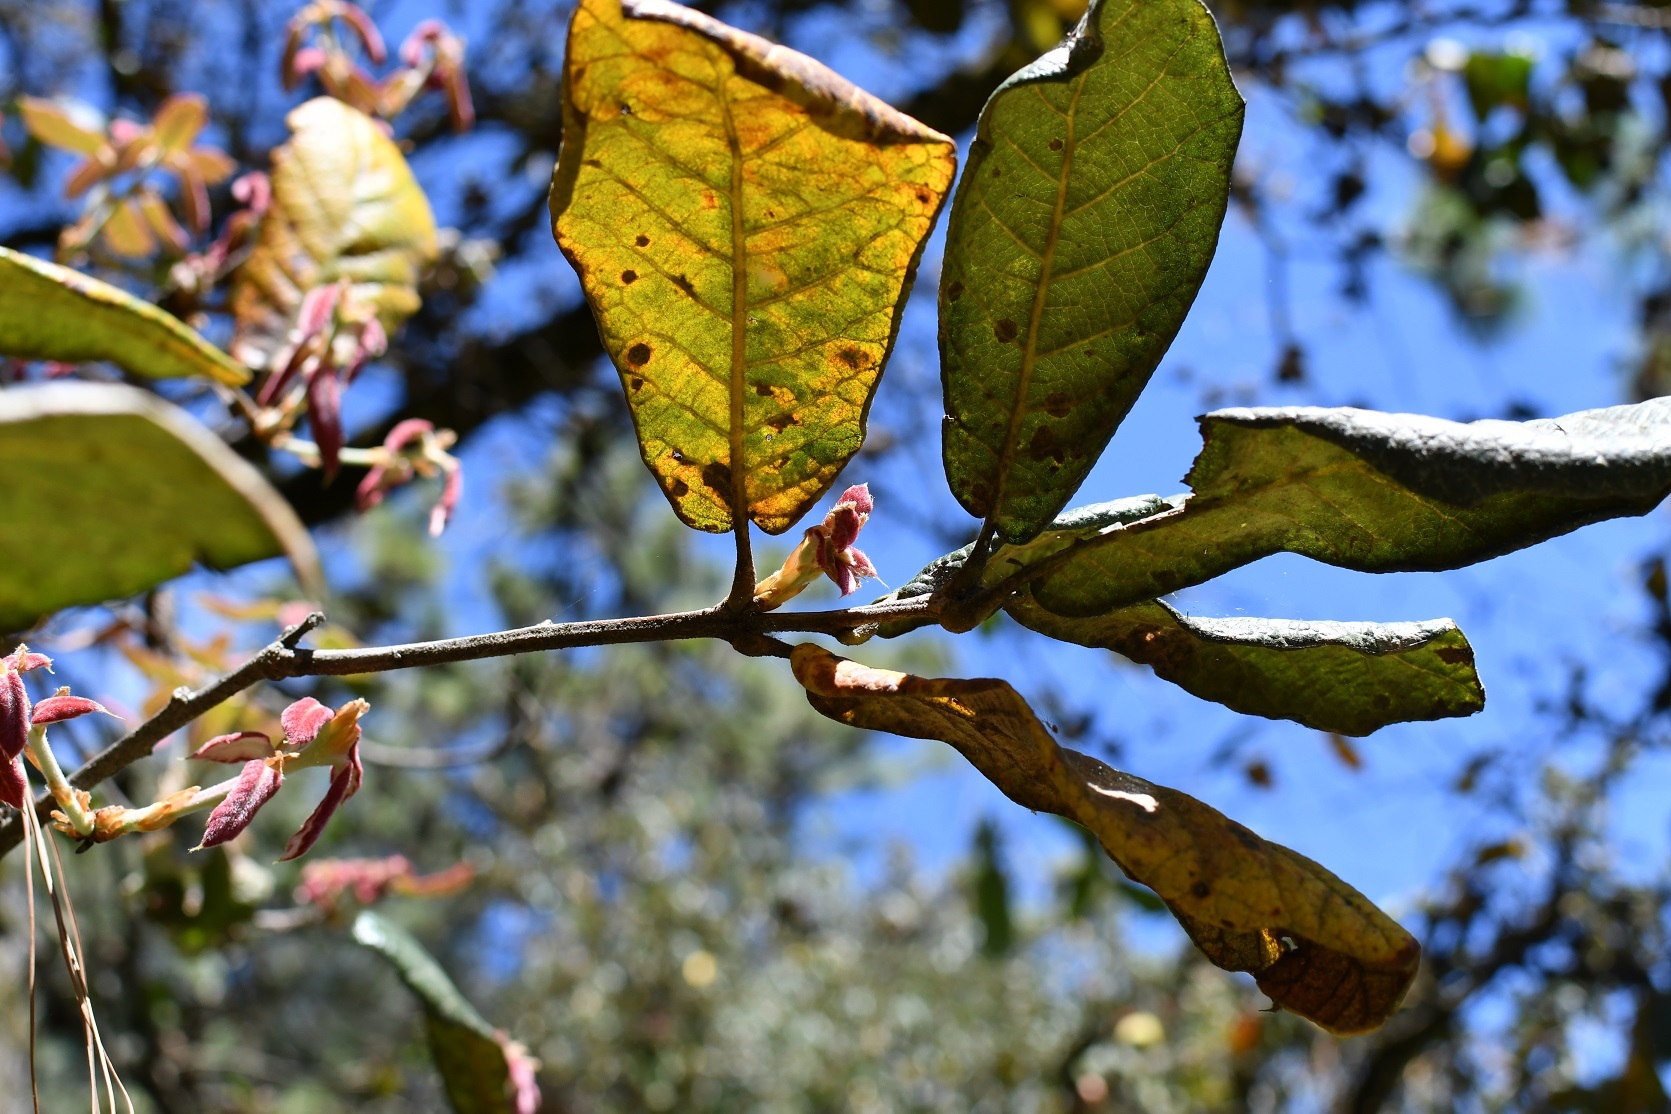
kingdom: Plantae
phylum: Tracheophyta
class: Magnoliopsida
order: Fagales
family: Fagaceae
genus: Quercus
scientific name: Quercus crassifolia
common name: Leather leaf mexican oak
